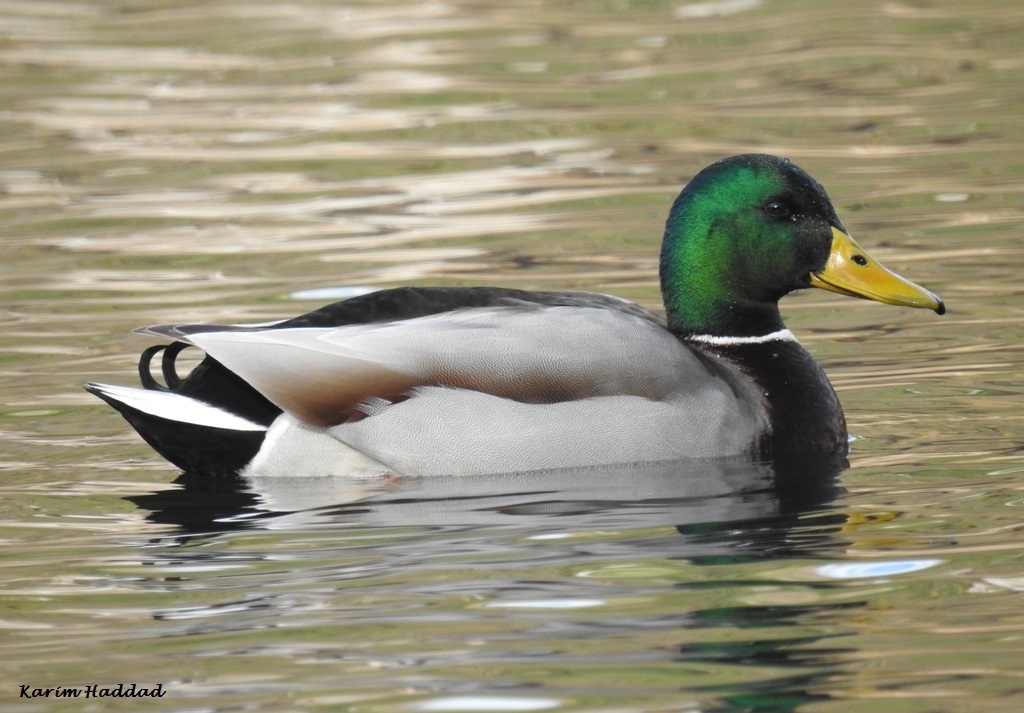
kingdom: Animalia
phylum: Chordata
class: Aves
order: Anseriformes
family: Anatidae
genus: Anas
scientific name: Anas platyrhynchos
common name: Mallard
